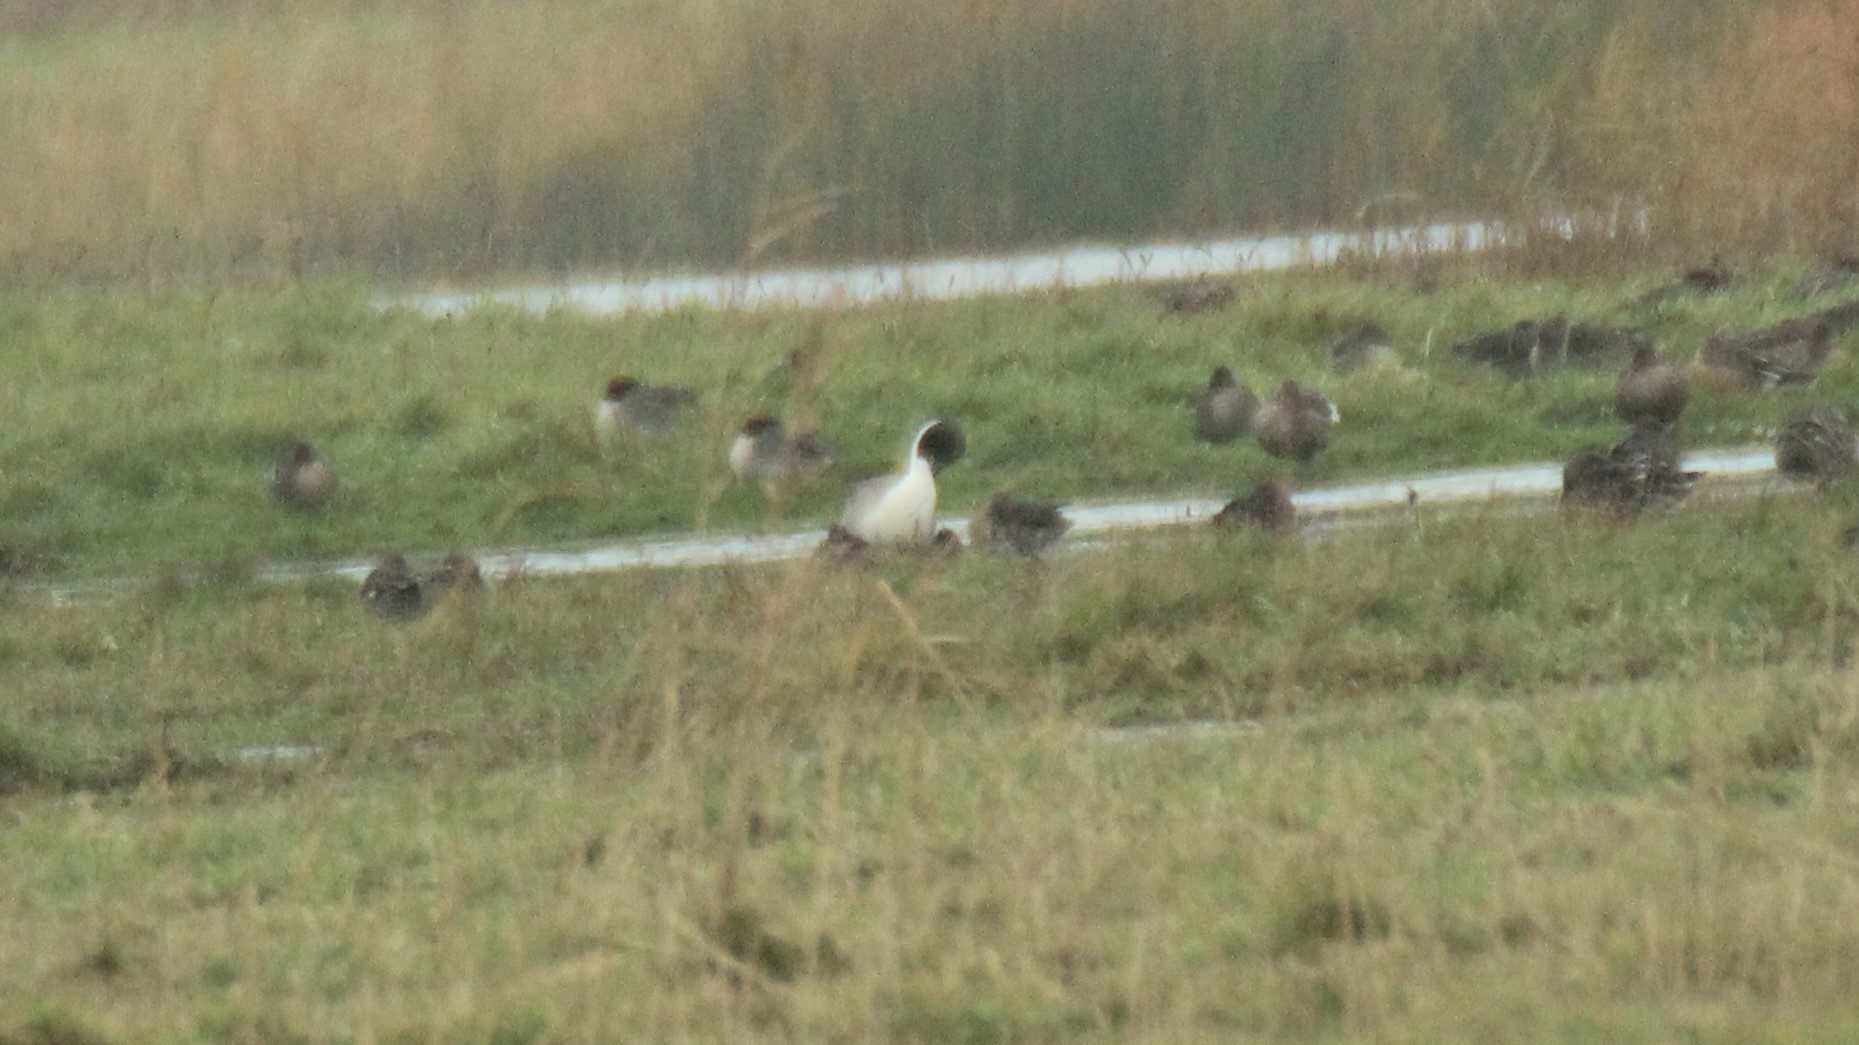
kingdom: Animalia
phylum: Chordata
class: Aves
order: Anseriformes
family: Anatidae
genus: Anas
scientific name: Anas acuta
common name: Northern pintail
